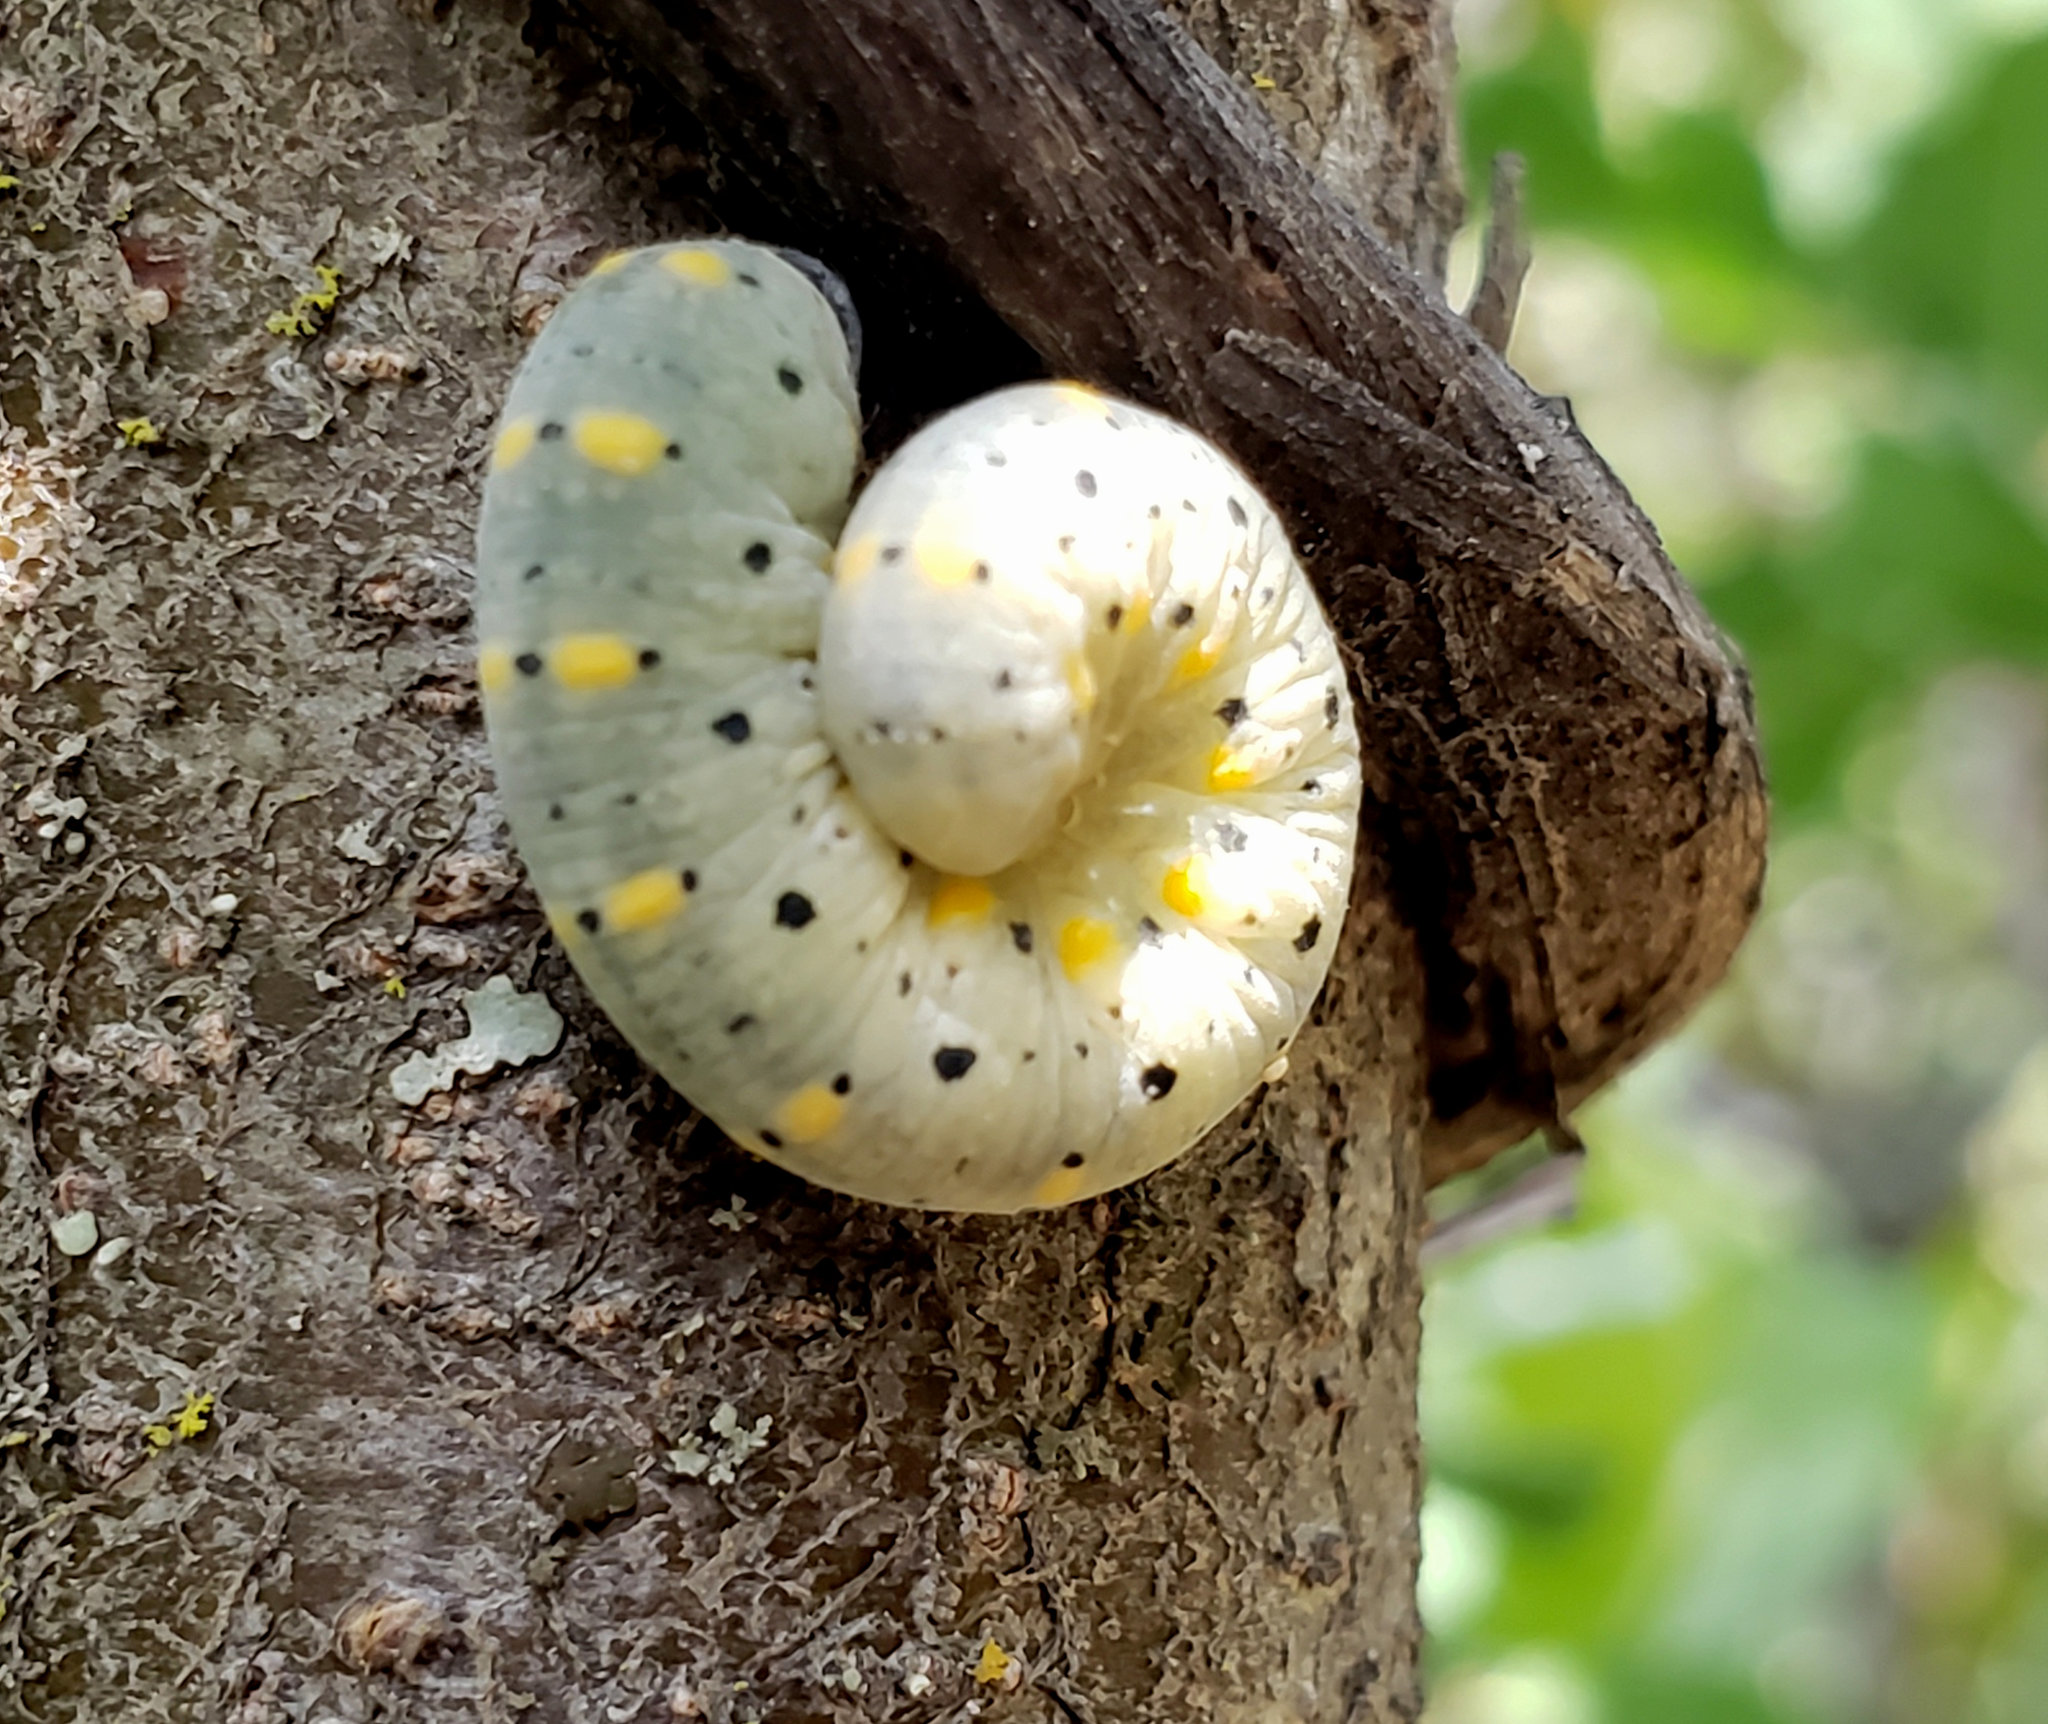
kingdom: Animalia
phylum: Arthropoda
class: Insecta
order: Hymenoptera
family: Cimbicidae
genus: Abia
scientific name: Abia americana
